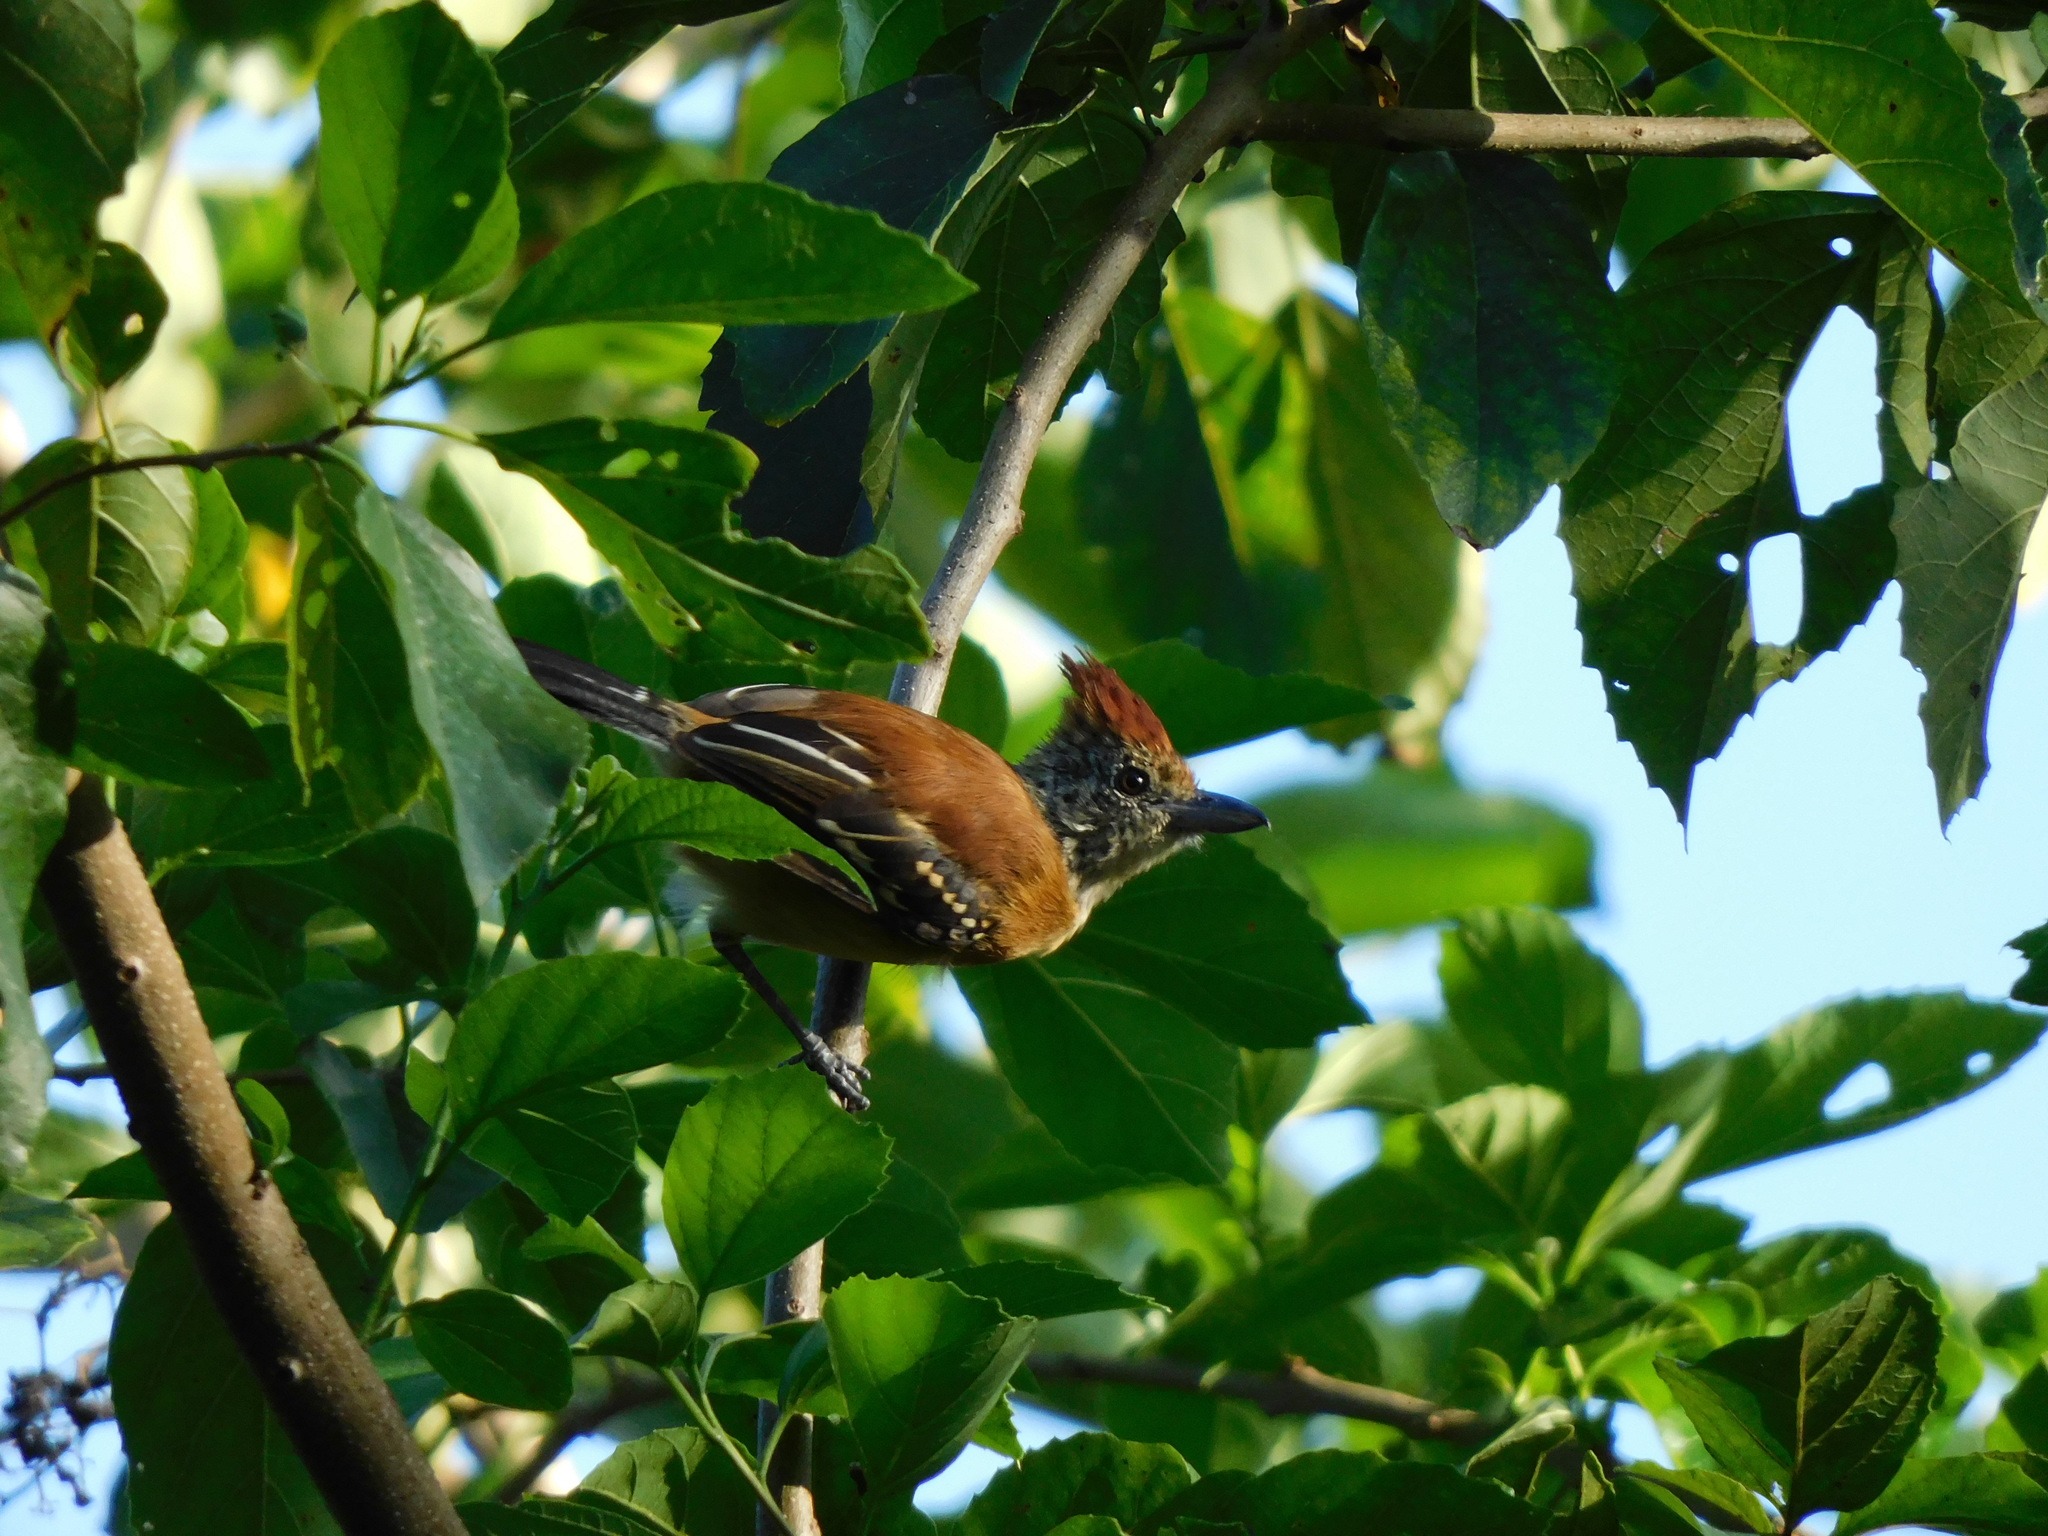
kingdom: Animalia
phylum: Chordata
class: Aves
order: Passeriformes
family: Thamnophilidae
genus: Sakesphorus
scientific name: Sakesphorus canadensis
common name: Black-crested antshrike
